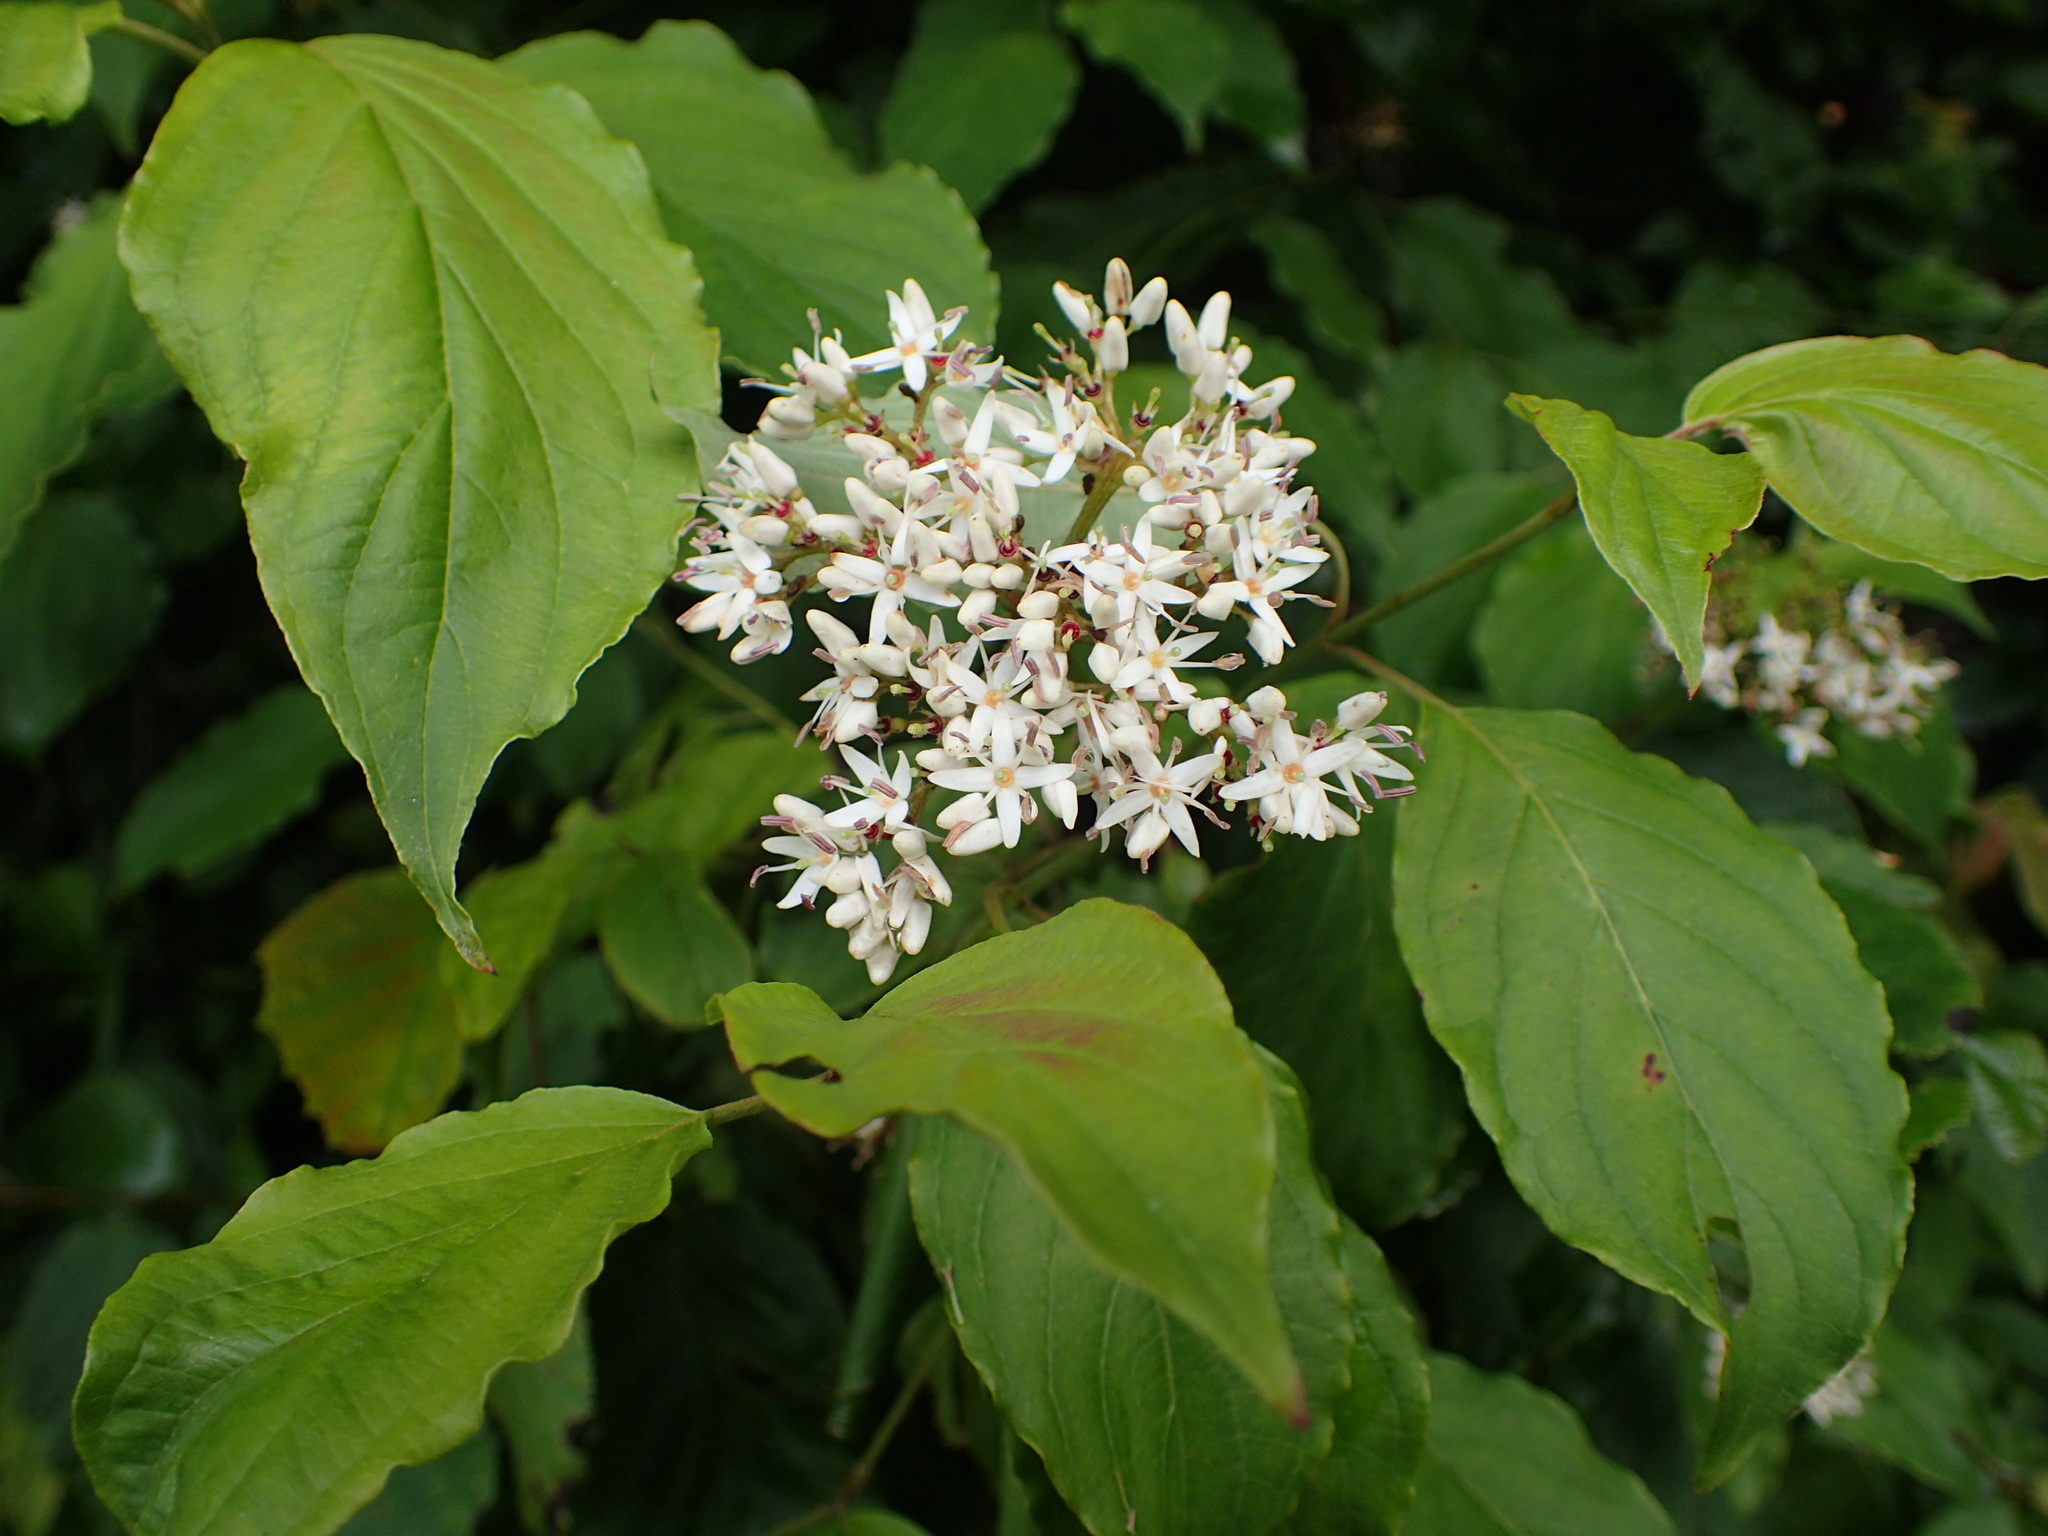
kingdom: Plantae
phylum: Tracheophyta
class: Magnoliopsida
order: Cornales
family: Cornaceae
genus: Cornus
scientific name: Cornus amomum
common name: Silky dogwood
